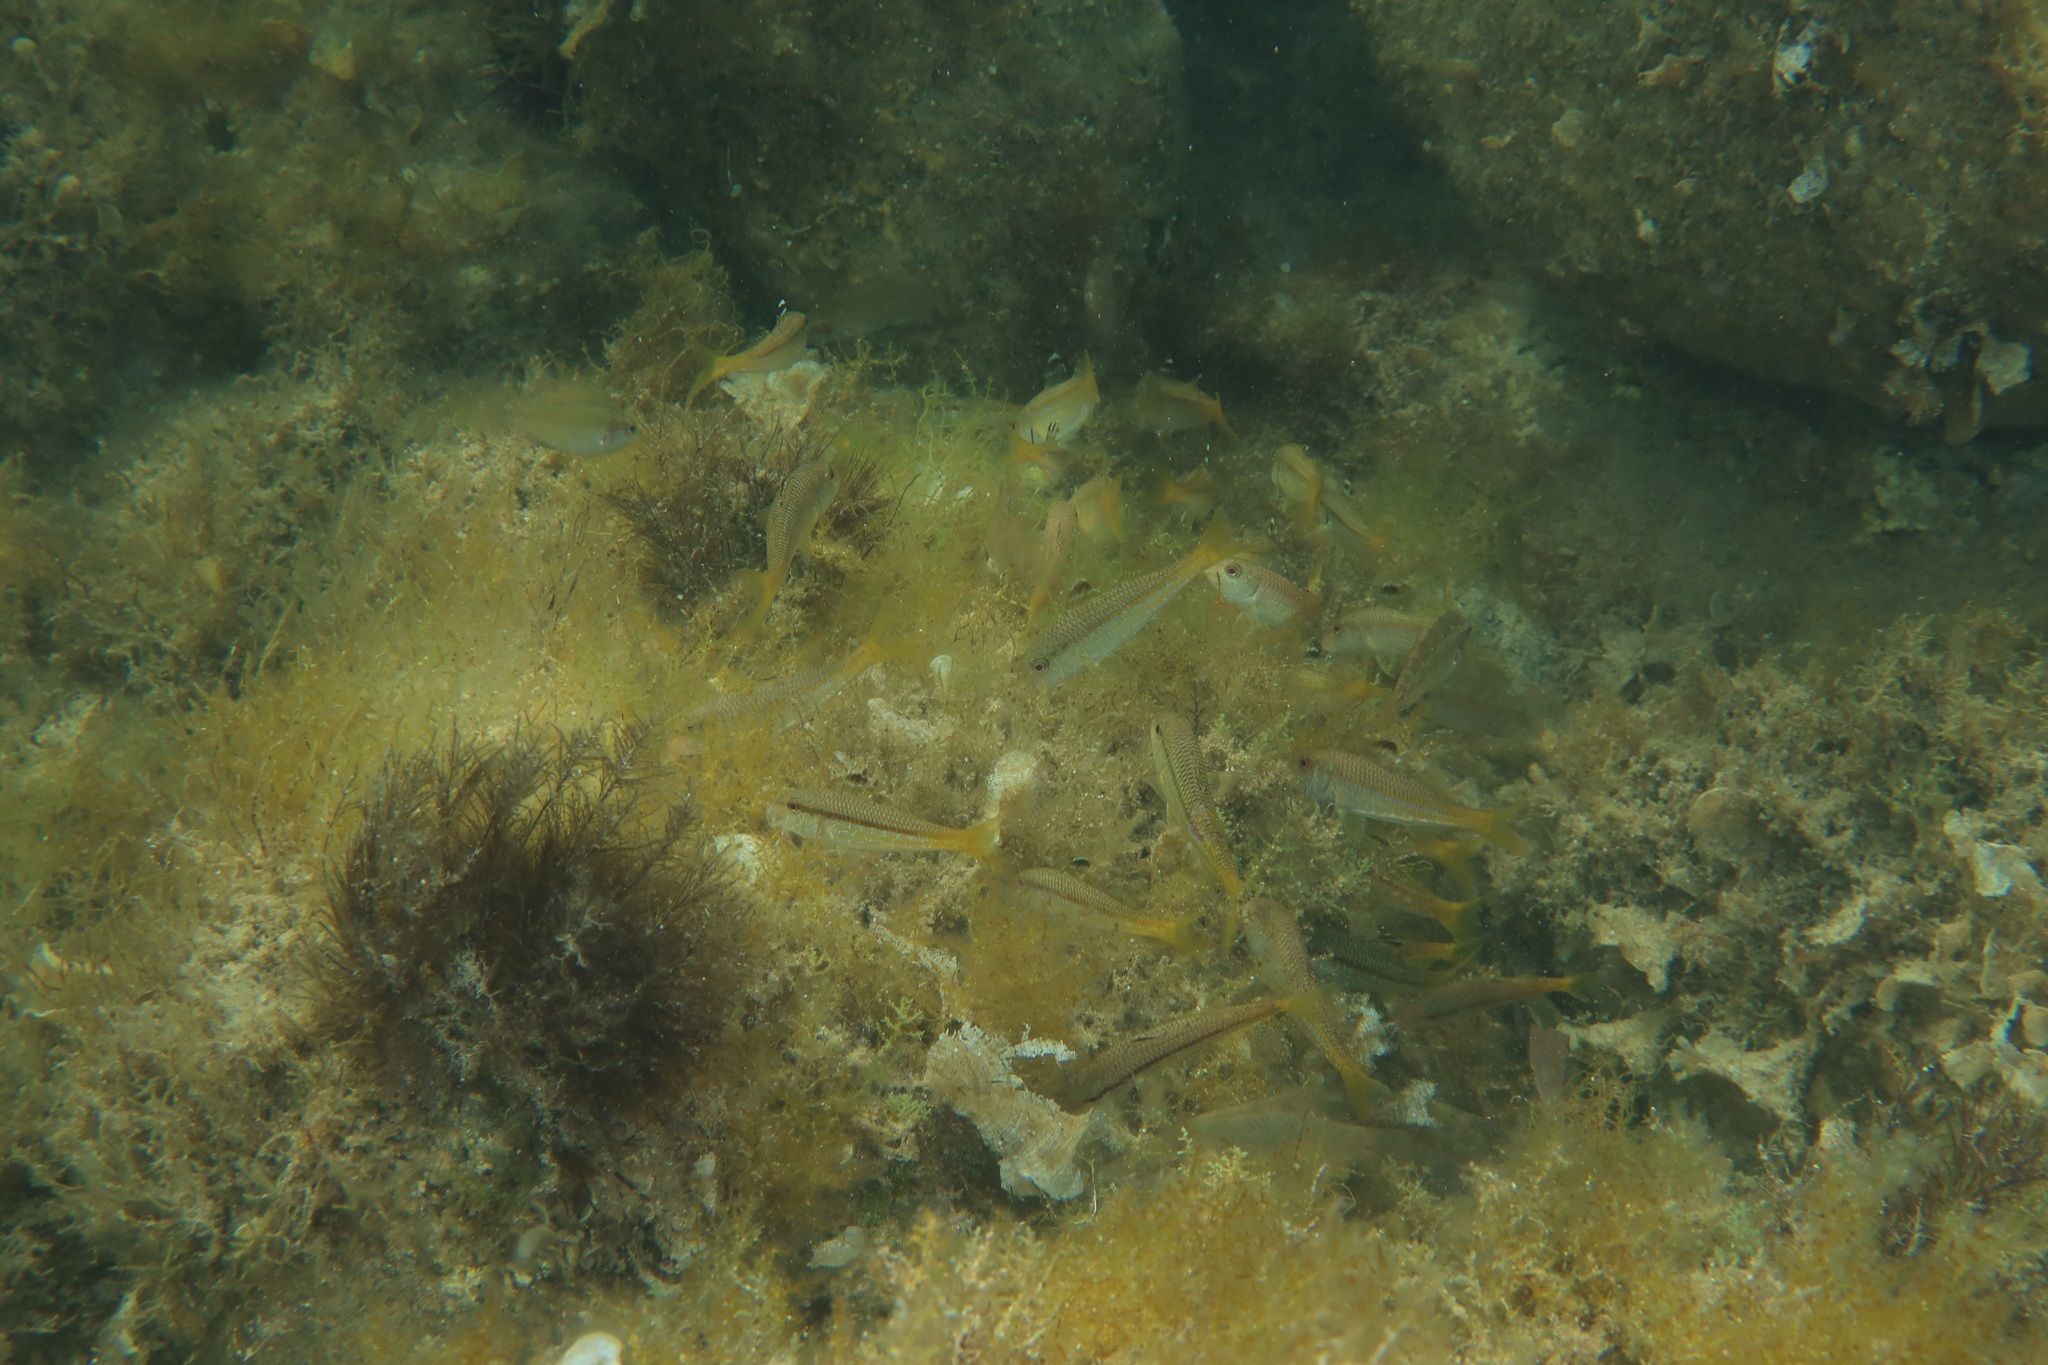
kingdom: Animalia
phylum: Chordata
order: Perciformes
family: Mullidae
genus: Mullus
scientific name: Mullus surmuletus
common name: Red mullet
